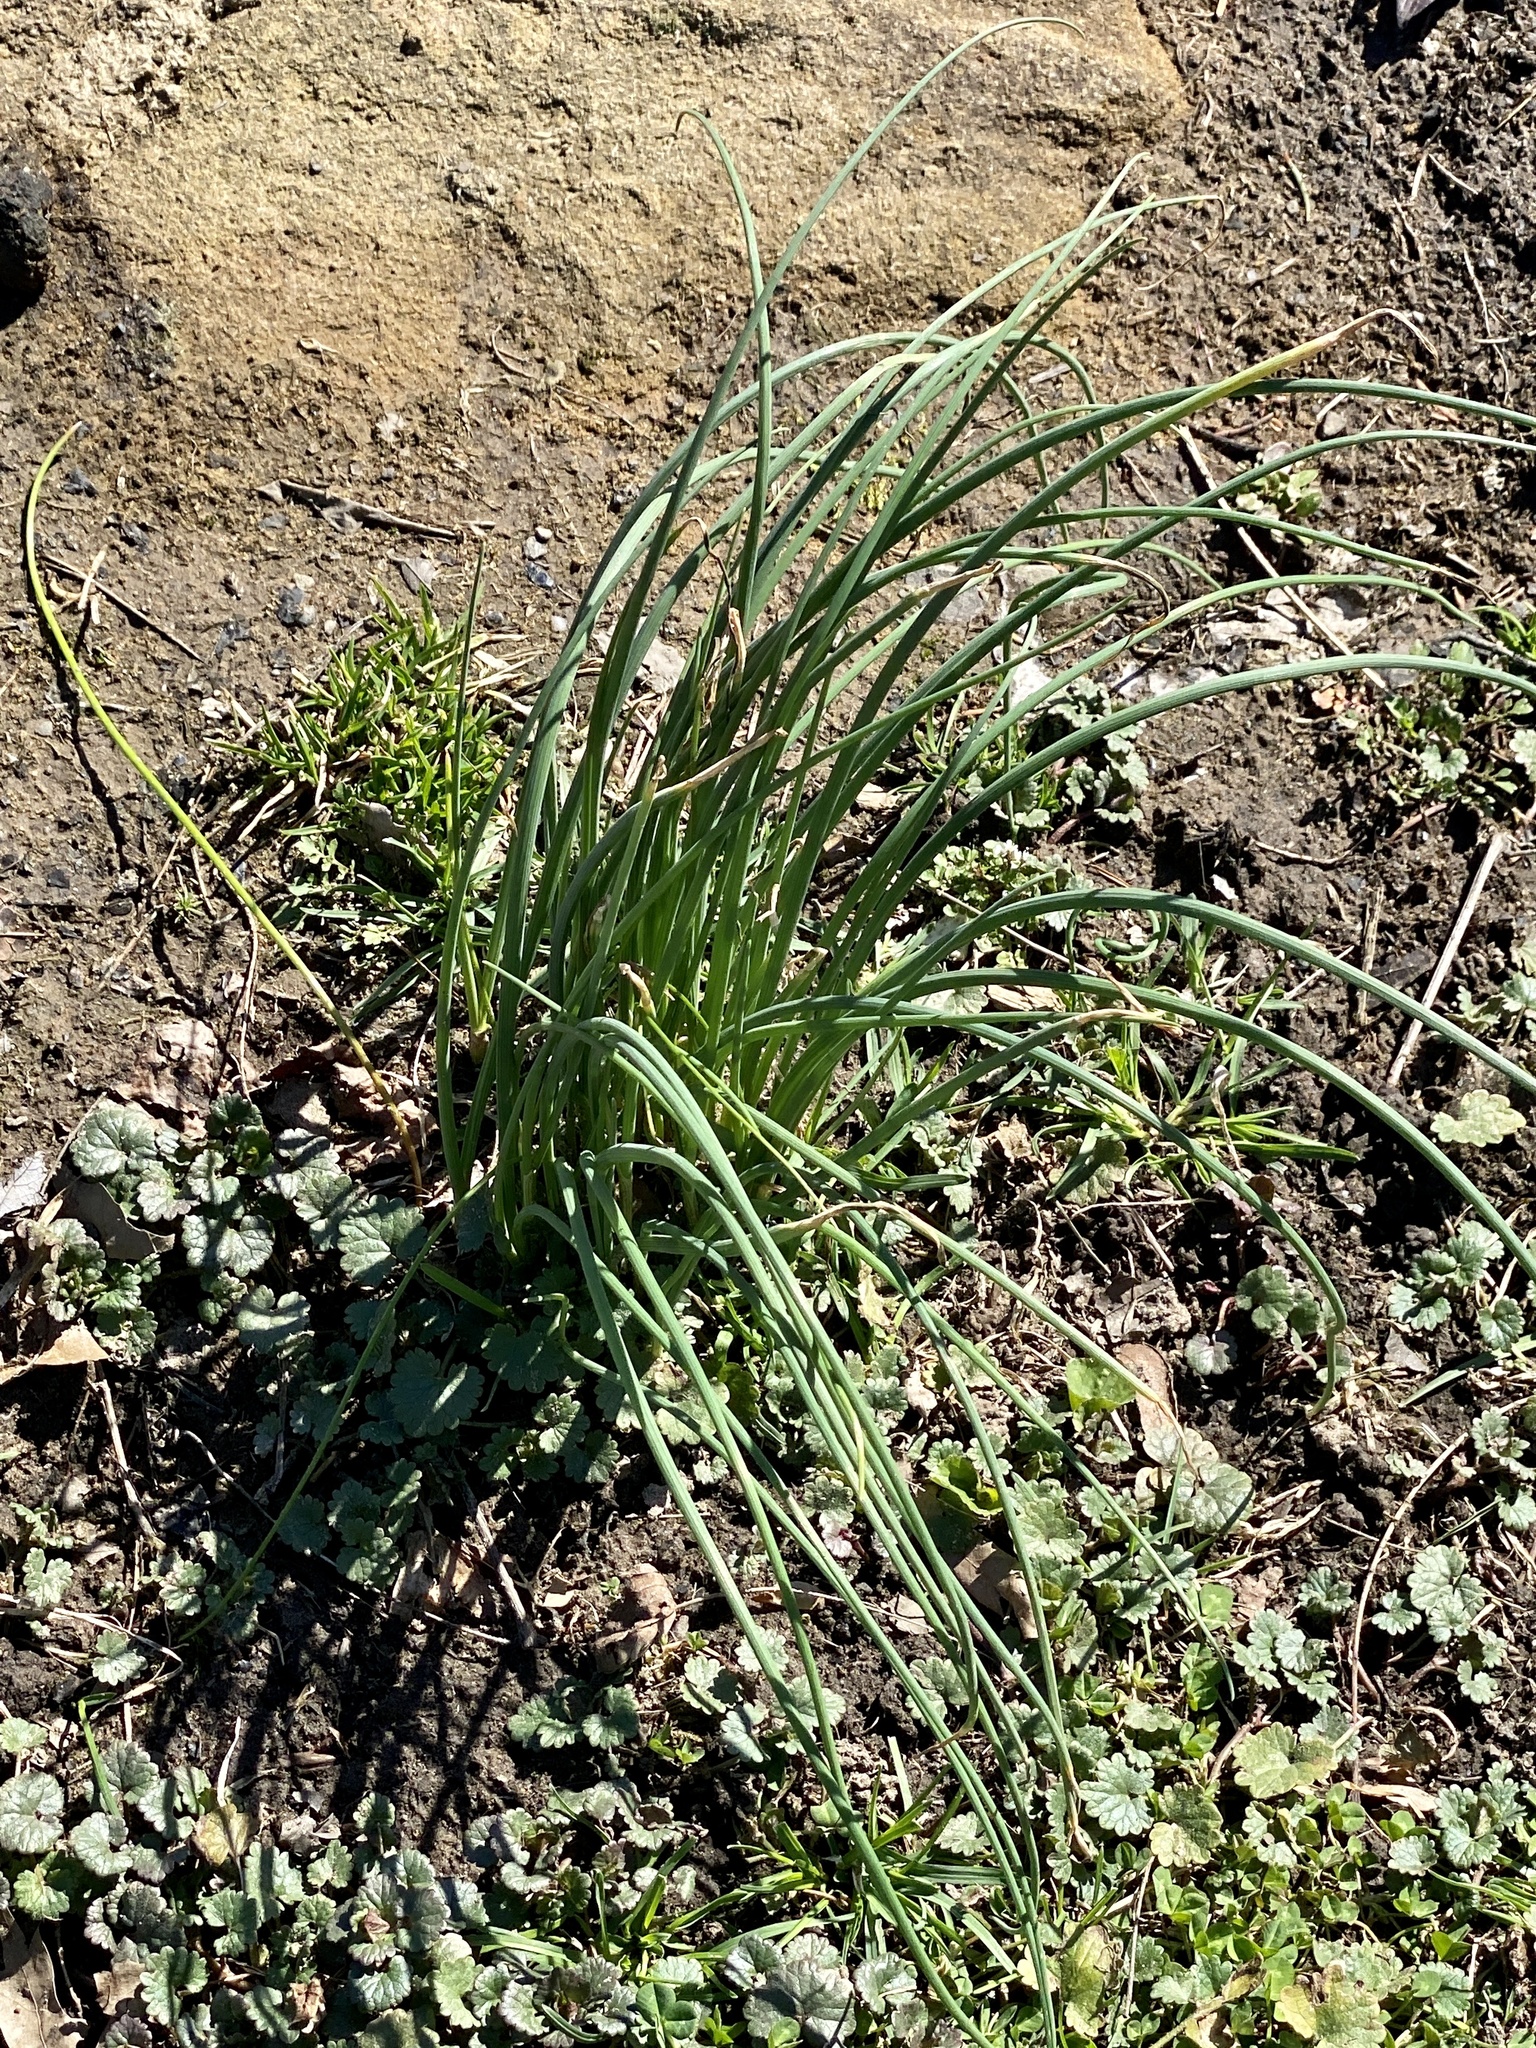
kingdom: Plantae
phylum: Tracheophyta
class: Liliopsida
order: Asparagales
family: Amaryllidaceae
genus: Allium
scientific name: Allium vineale
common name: Crow garlic
